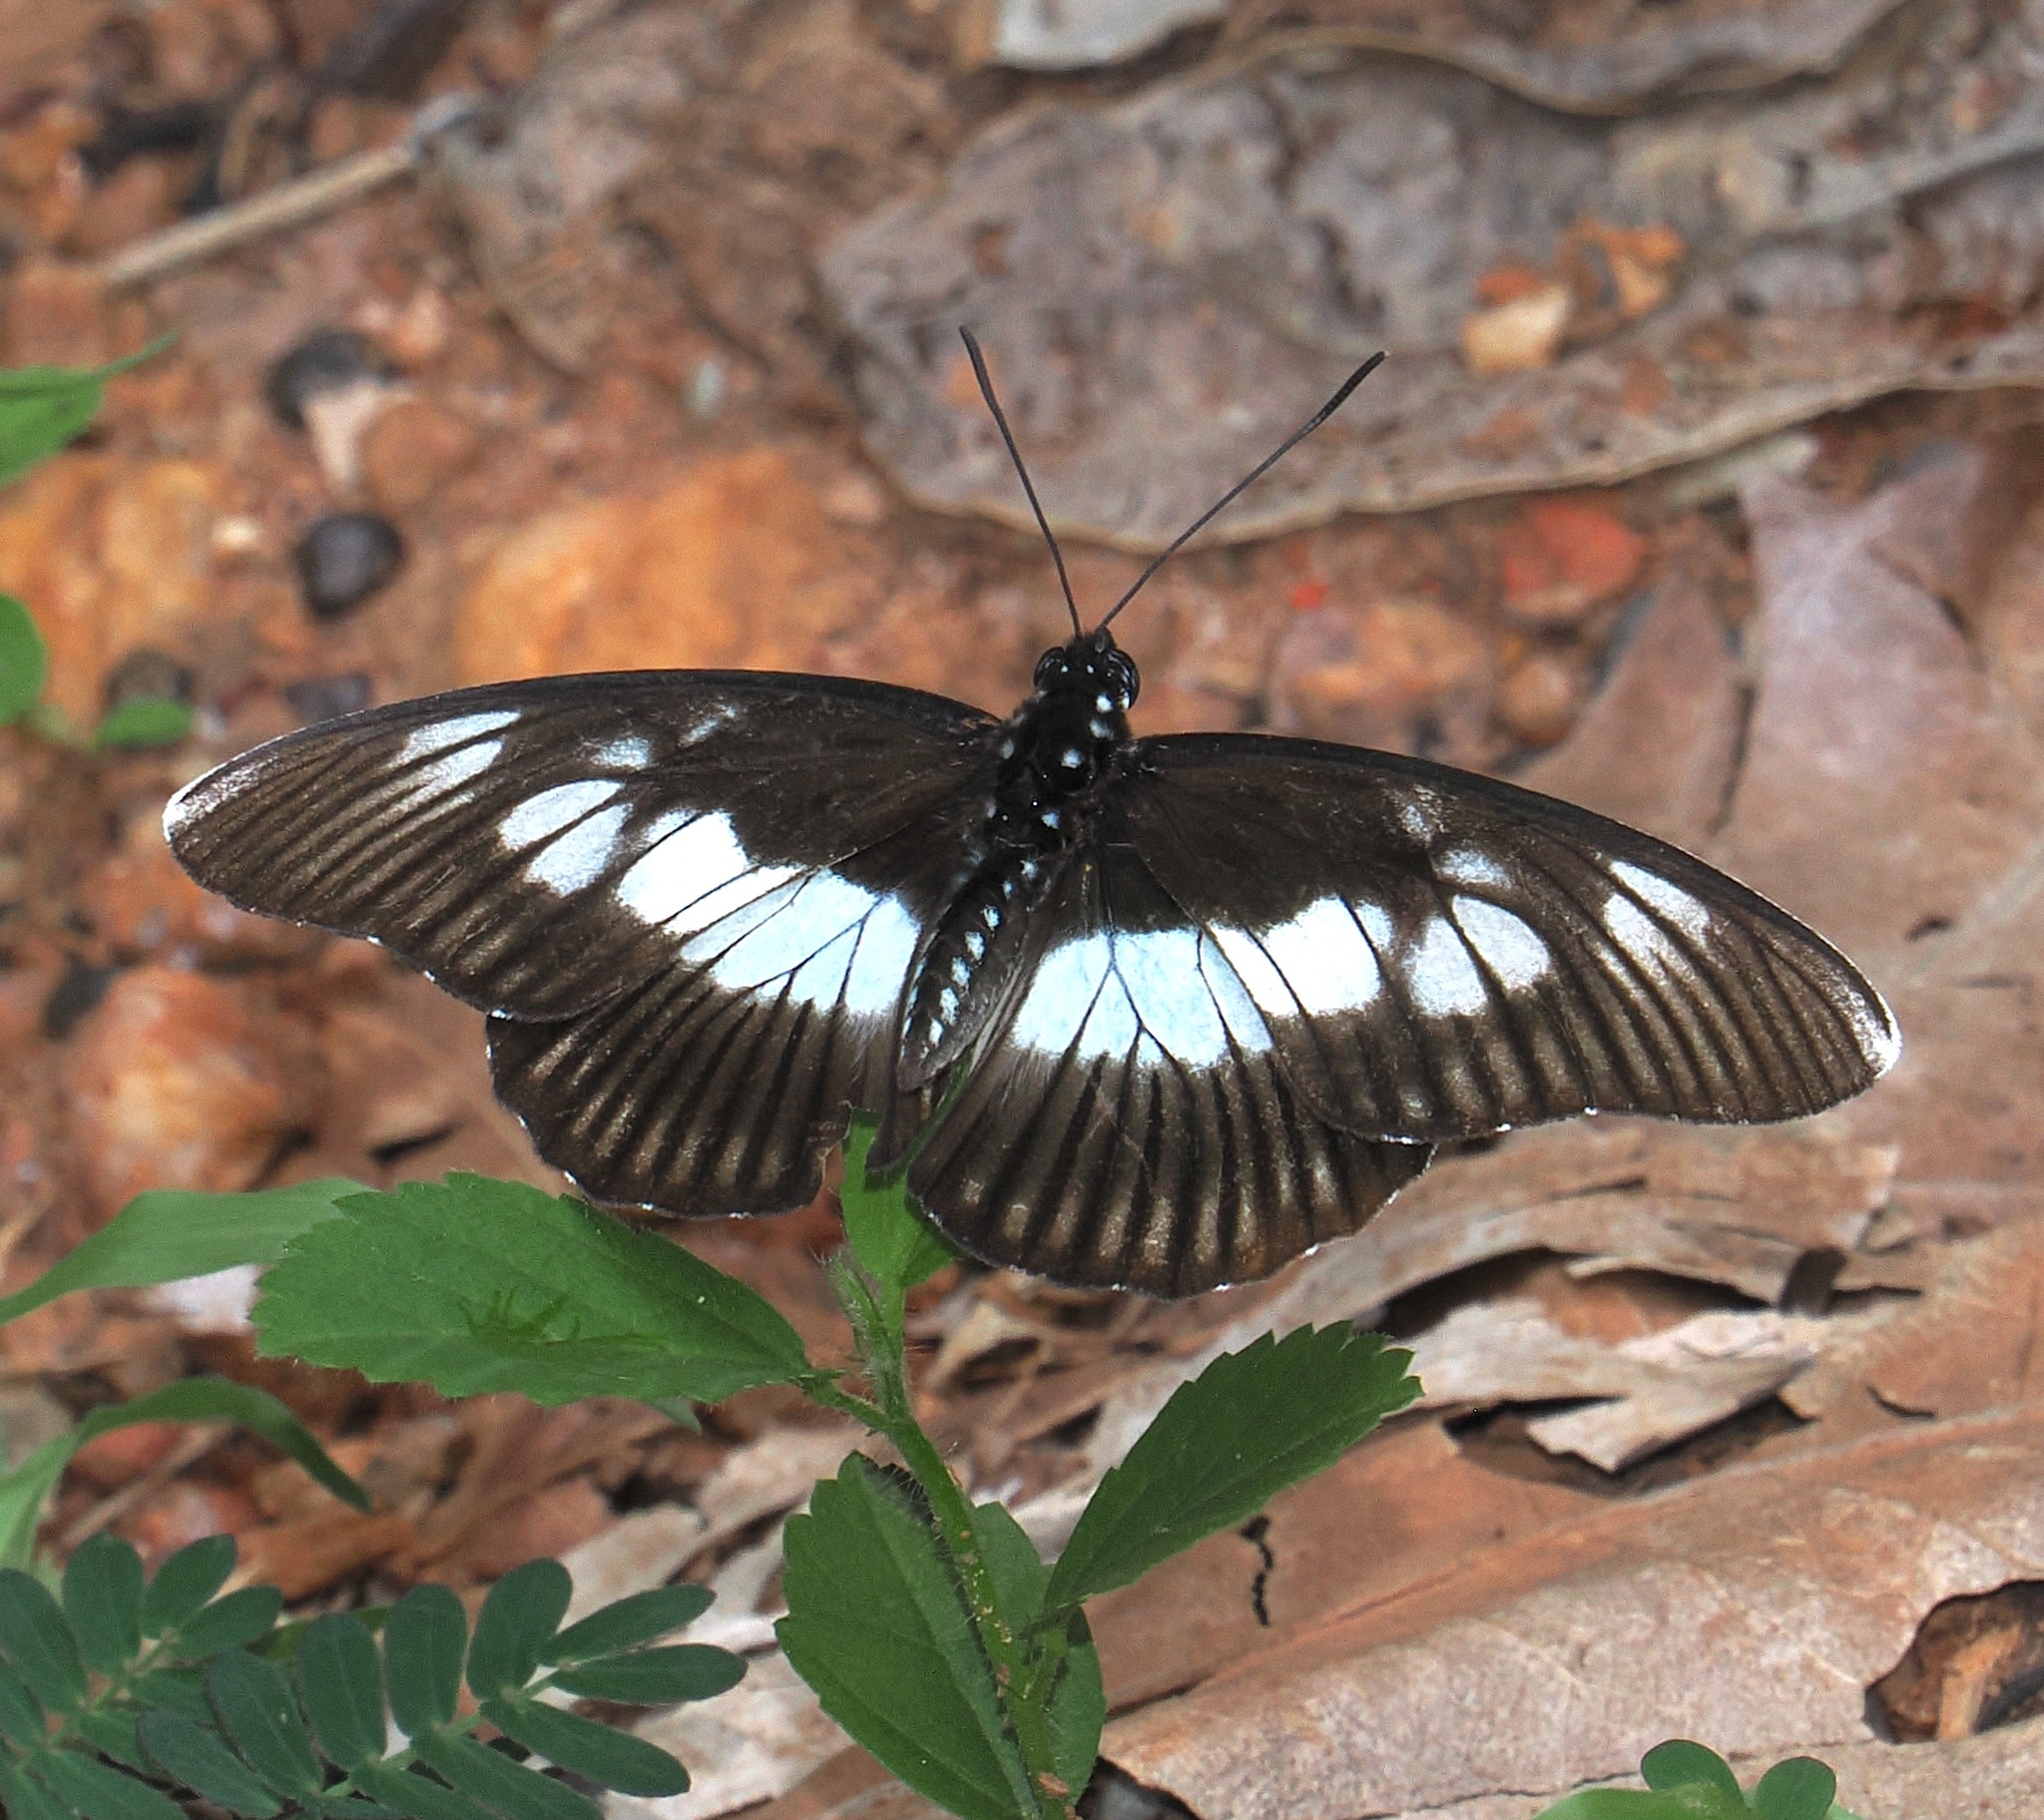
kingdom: Animalia
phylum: Arthropoda
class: Insecta
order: Lepidoptera
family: Nymphalidae
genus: Chloropoea
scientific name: Chloropoea lucretia
